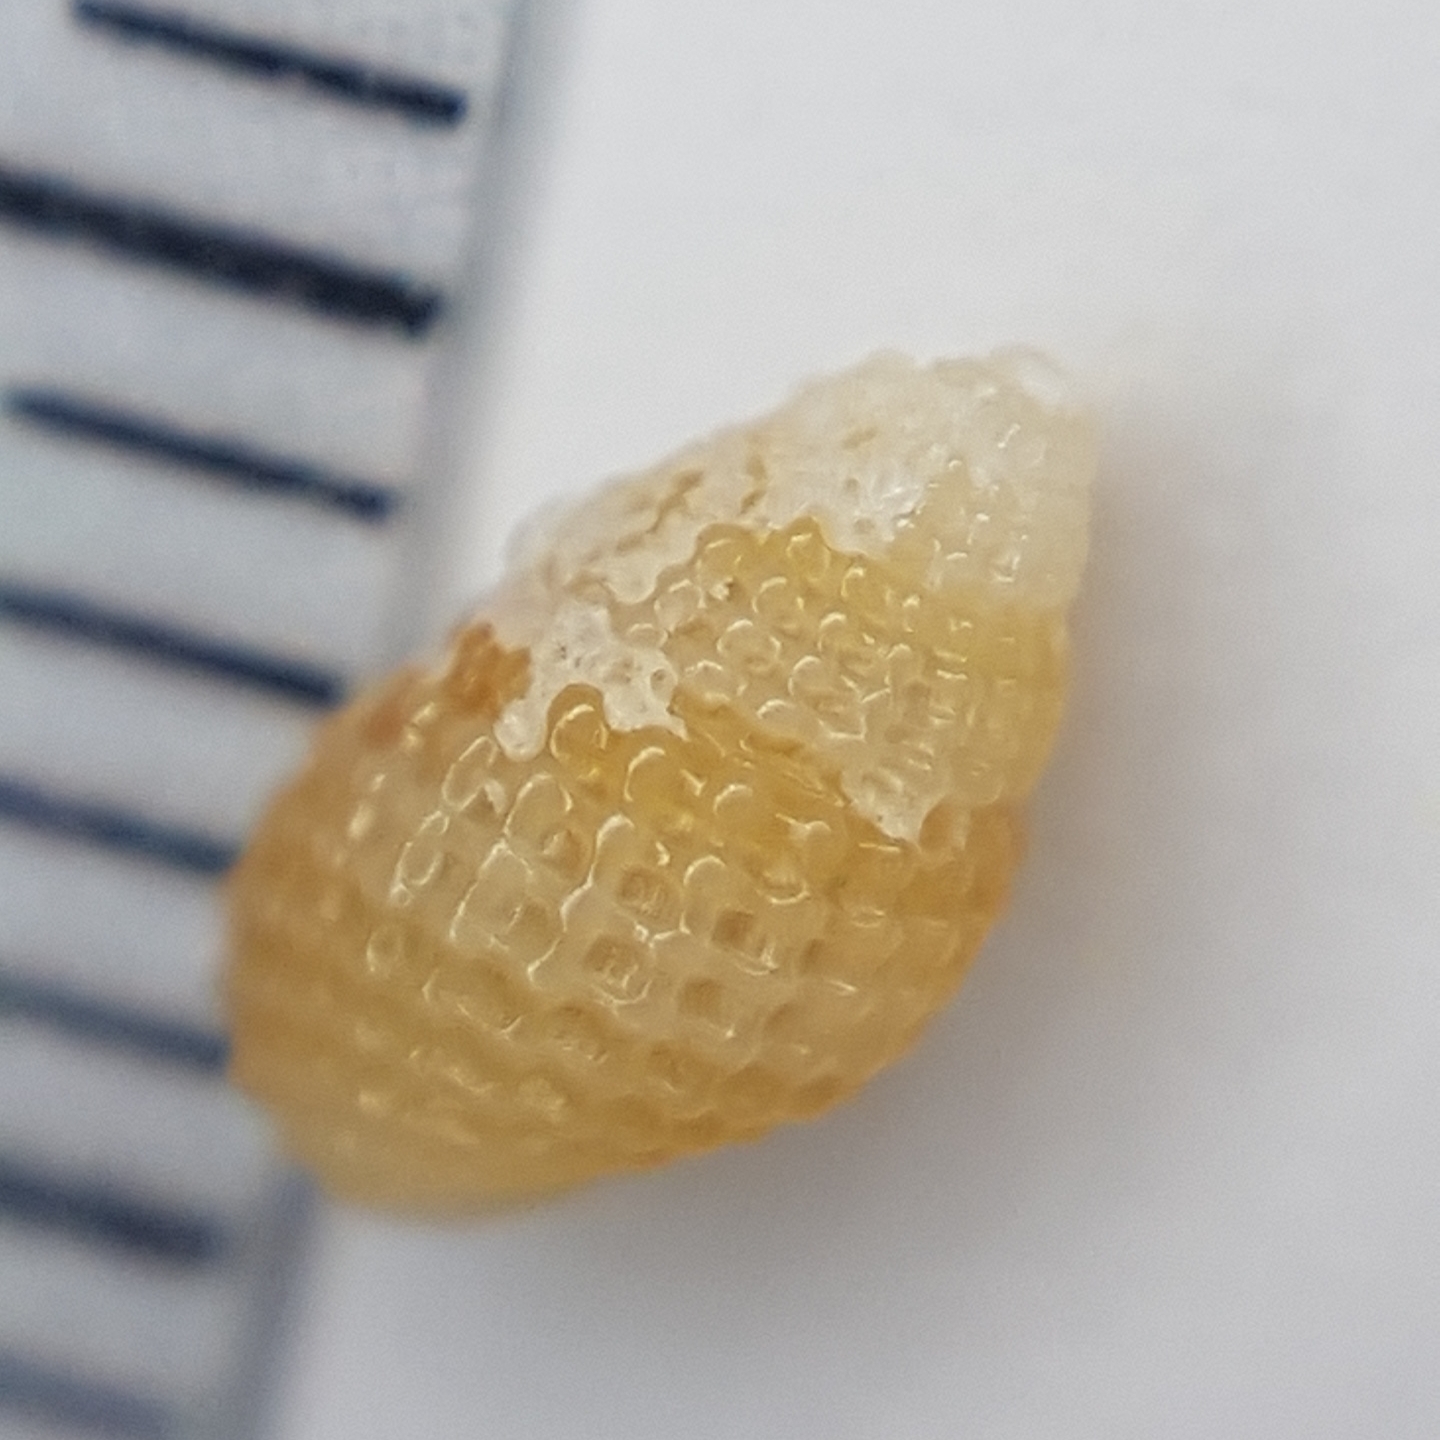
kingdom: Animalia
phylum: Mollusca
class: Gastropoda
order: Littorinimorpha
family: Rissoidae
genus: Alvania
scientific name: Alvania cimex
